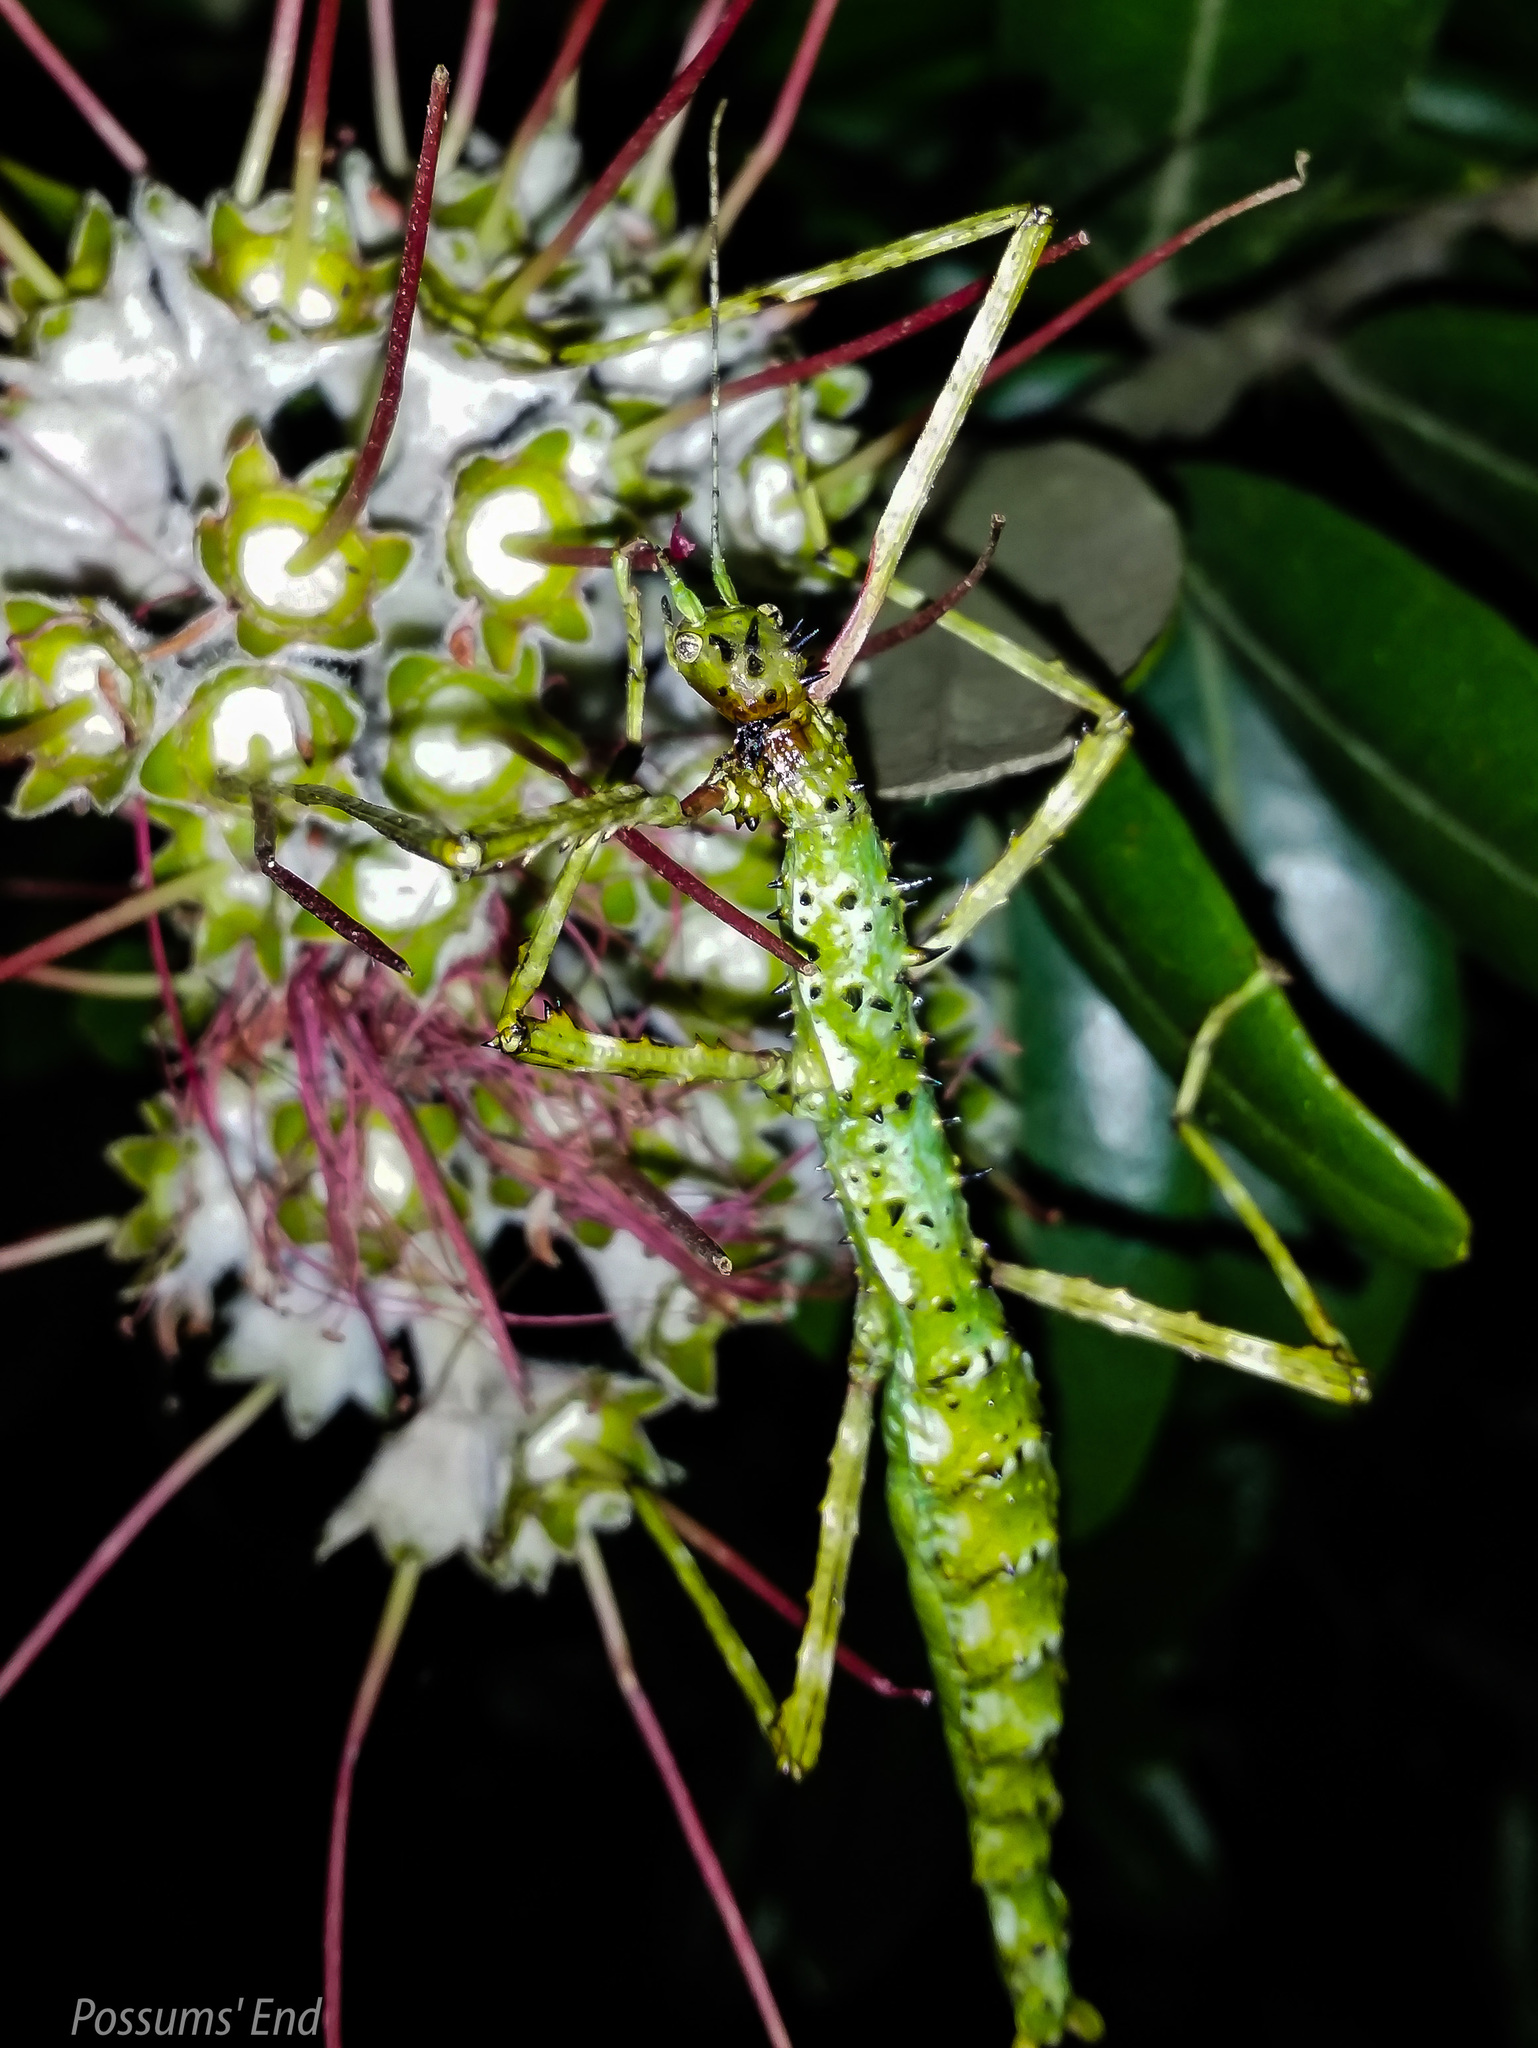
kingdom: Animalia
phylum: Arthropoda
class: Insecta
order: Phasmida
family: Phasmatidae
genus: Acanthoxyla
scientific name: Acanthoxyla geisovii
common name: Prickly stick insect
